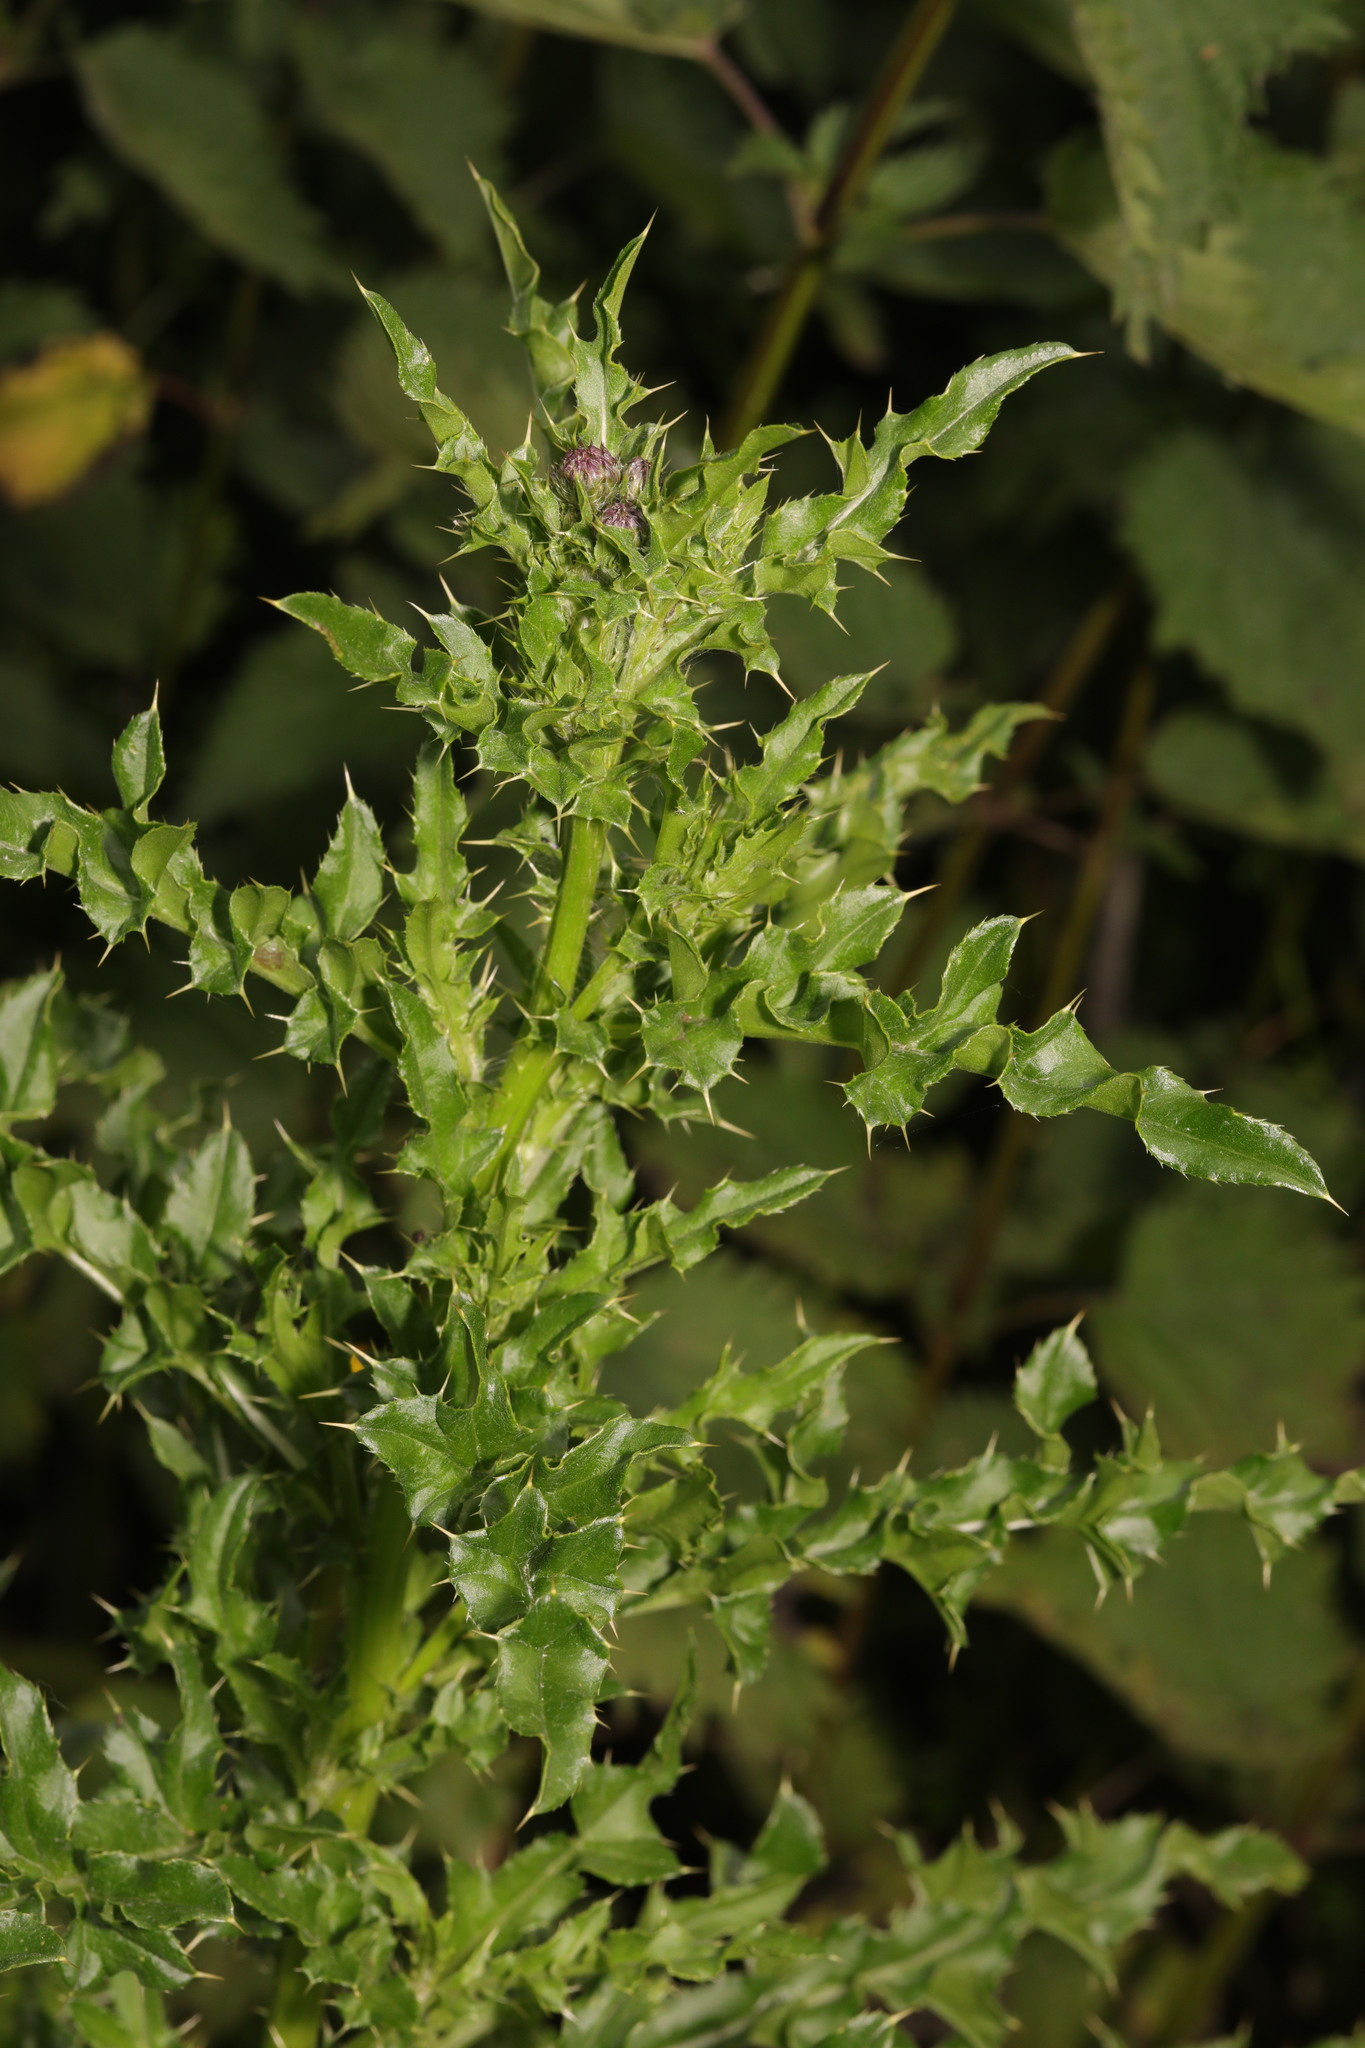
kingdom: Plantae
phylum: Tracheophyta
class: Magnoliopsida
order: Asterales
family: Asteraceae
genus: Cirsium
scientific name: Cirsium arvense
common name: Creeping thistle
